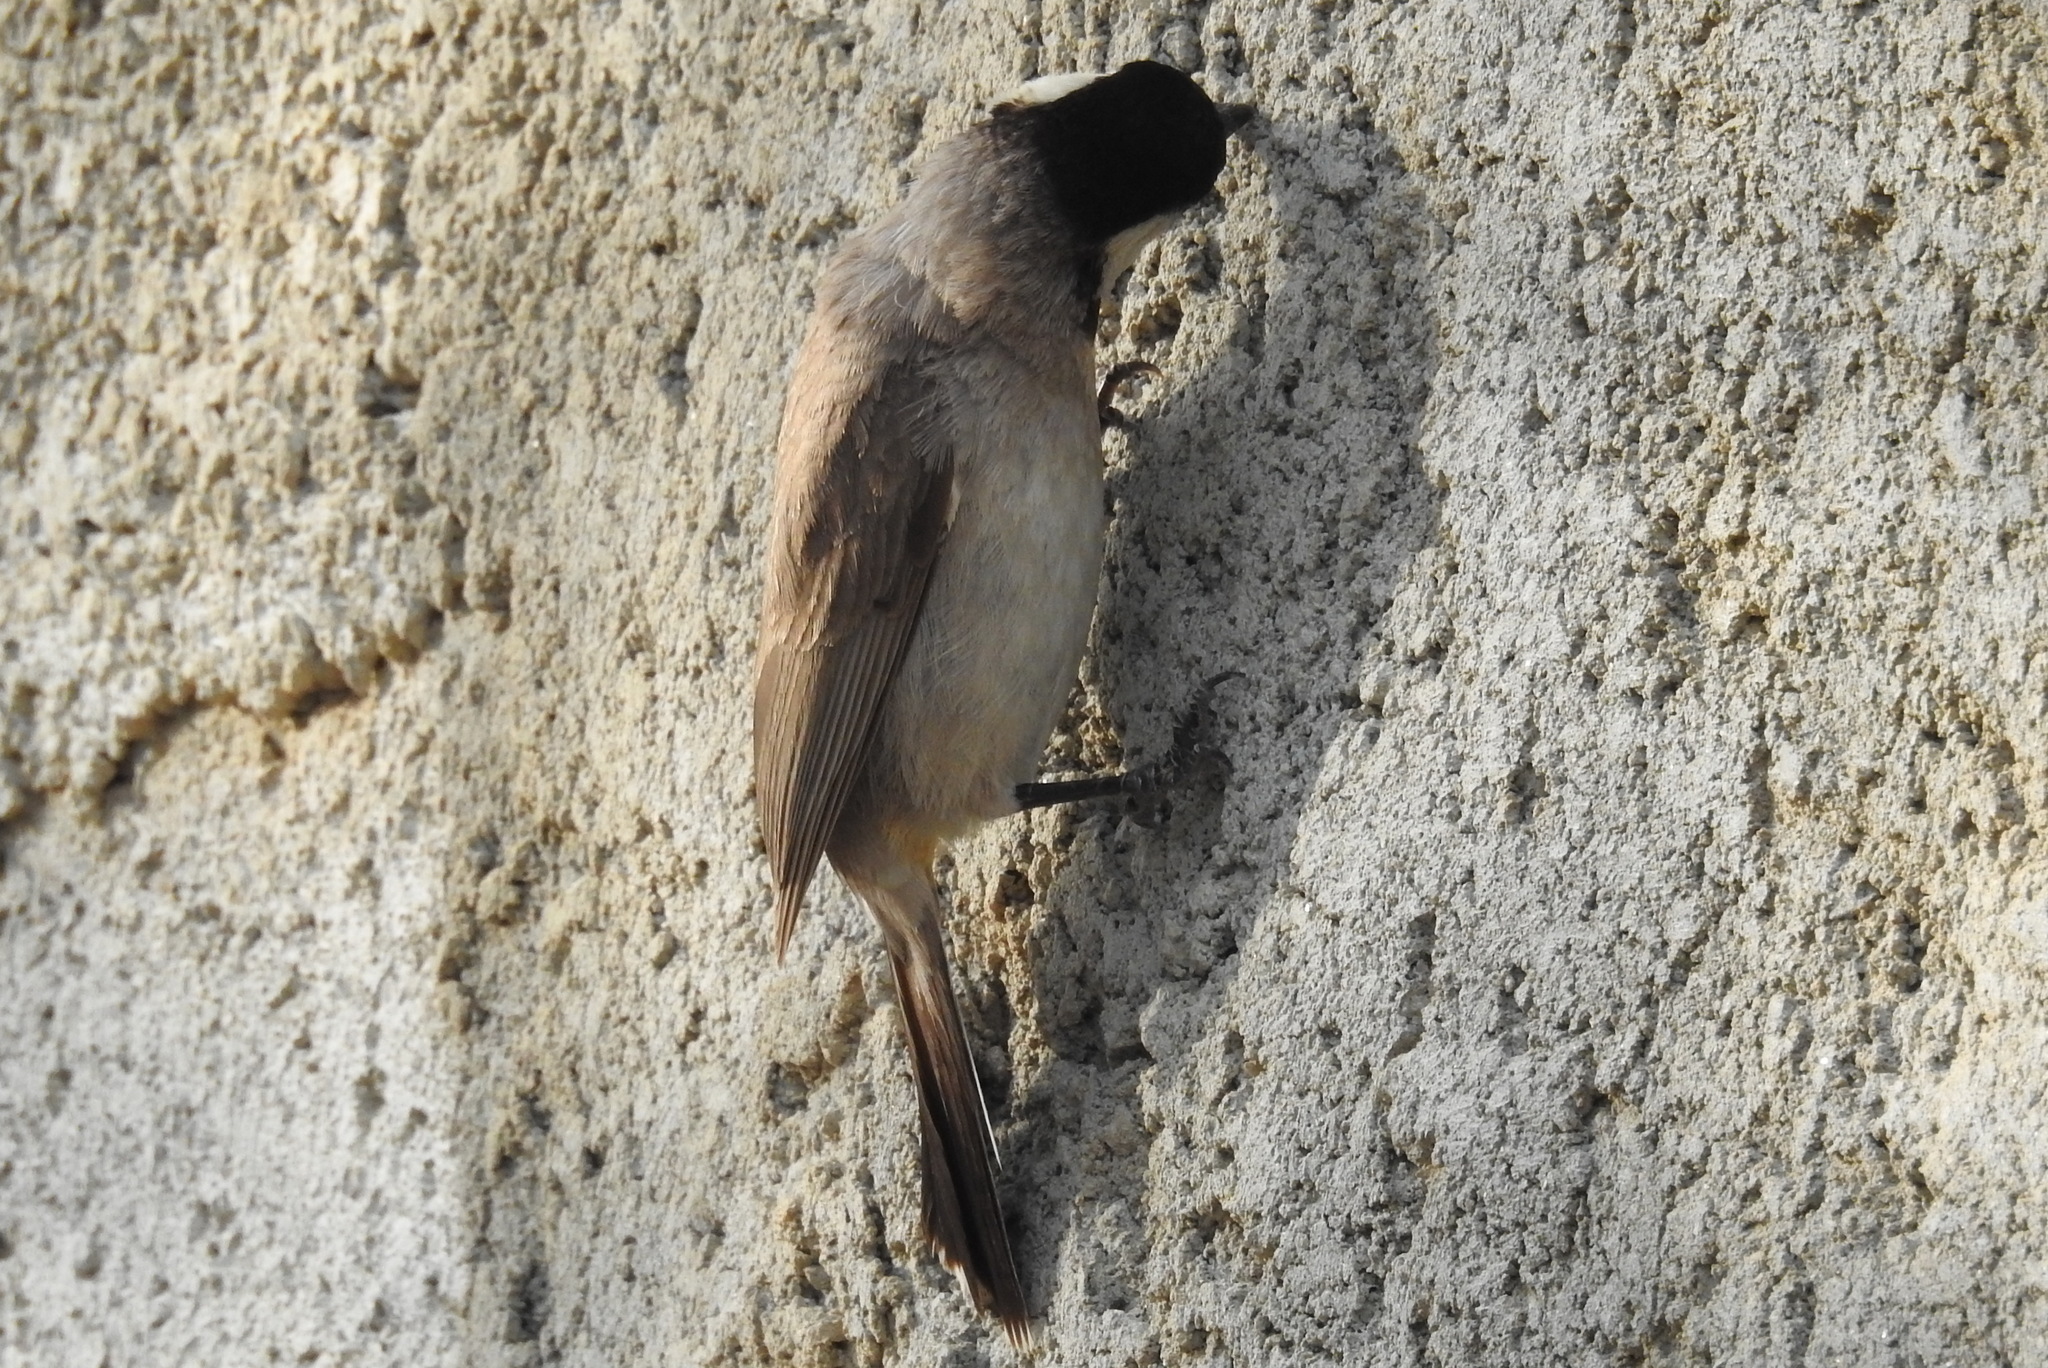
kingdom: Animalia
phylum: Chordata
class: Aves
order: Passeriformes
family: Pycnonotidae
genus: Pycnonotus
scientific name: Pycnonotus leucotis
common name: White-eared bulbul
